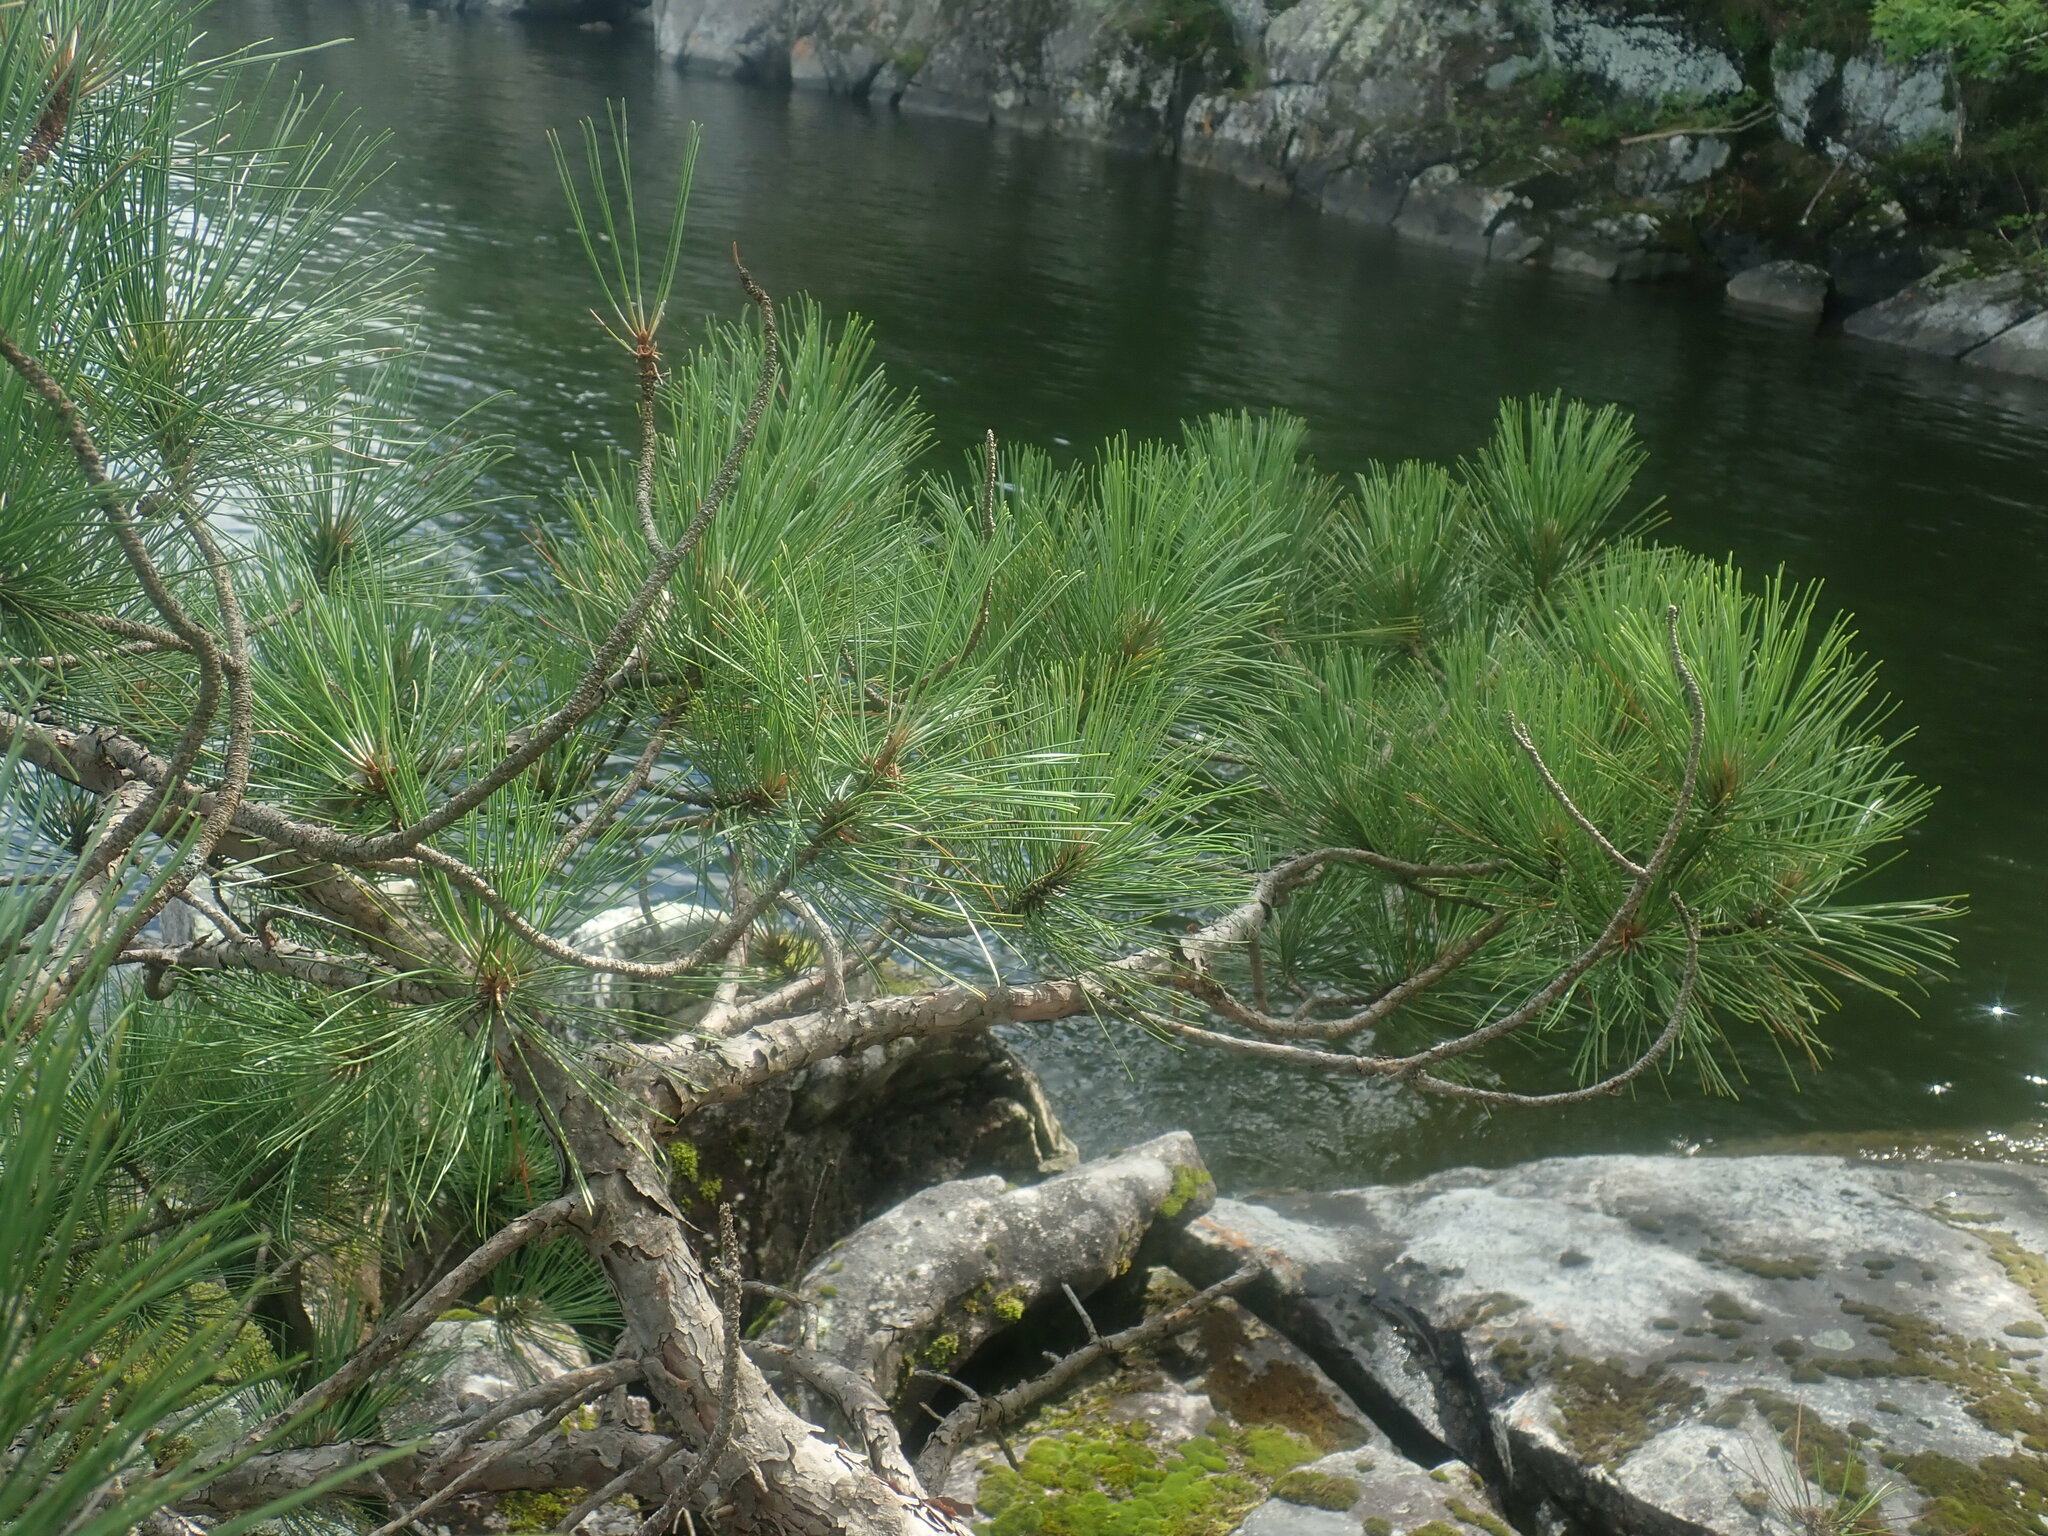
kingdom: Plantae
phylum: Tracheophyta
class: Pinopsida
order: Pinales
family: Pinaceae
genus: Pinus
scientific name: Pinus resinosa
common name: Norway pine
